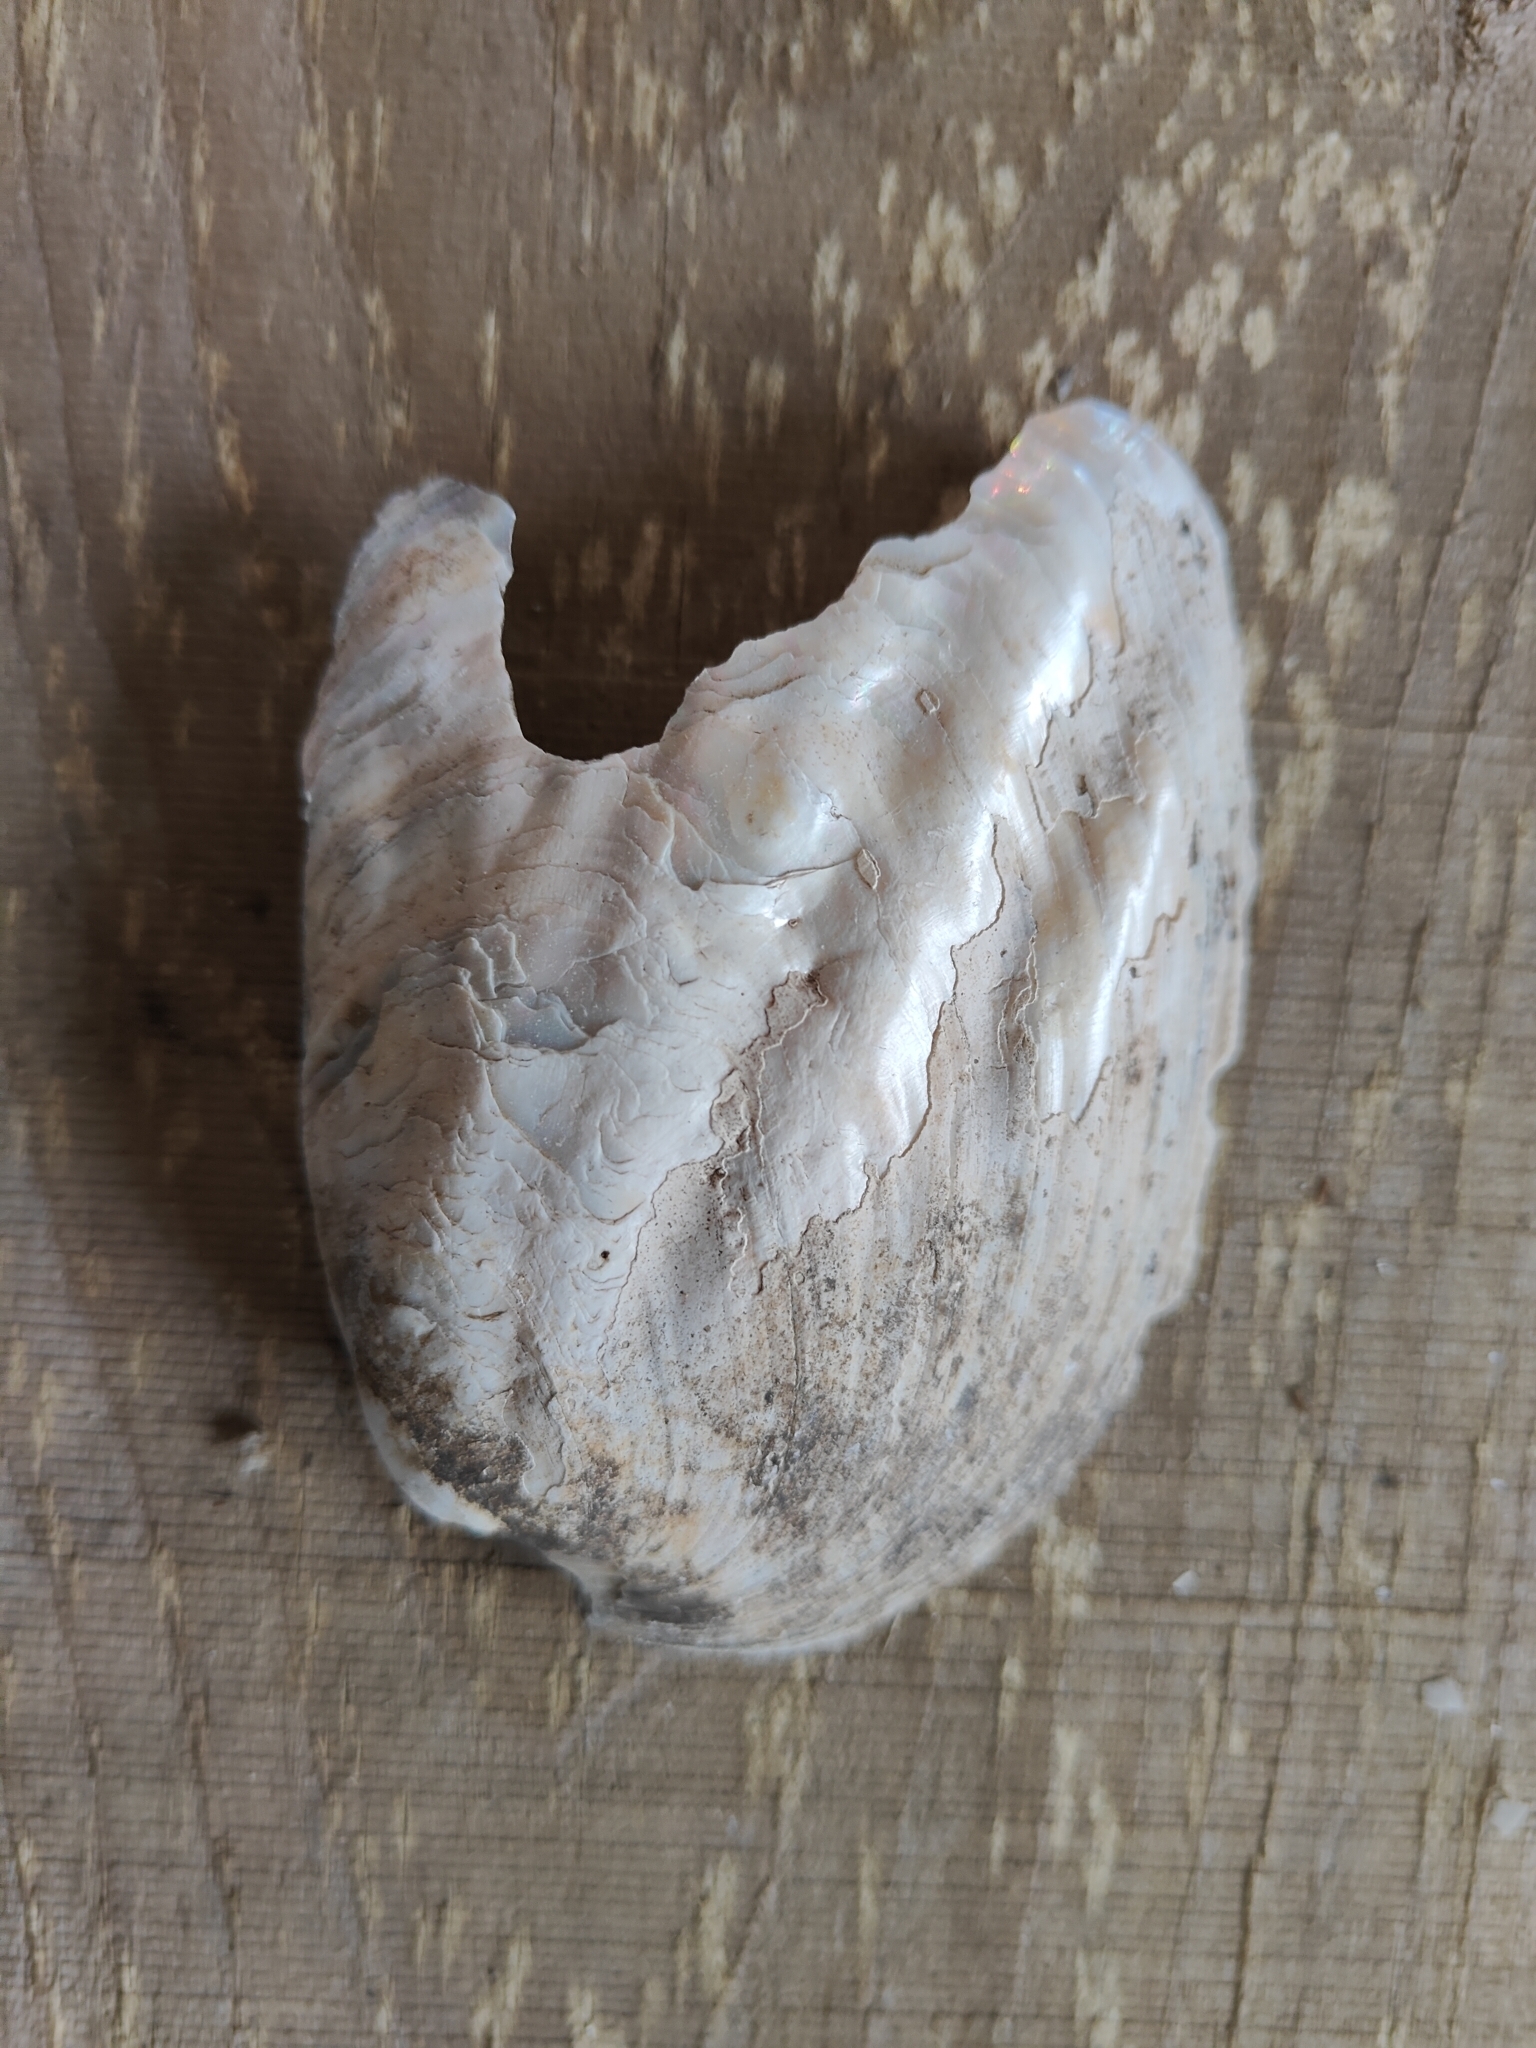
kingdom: Animalia
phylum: Mollusca
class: Bivalvia
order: Unionida
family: Unionidae
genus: Amblema
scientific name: Amblema plicata
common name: Threeridge
